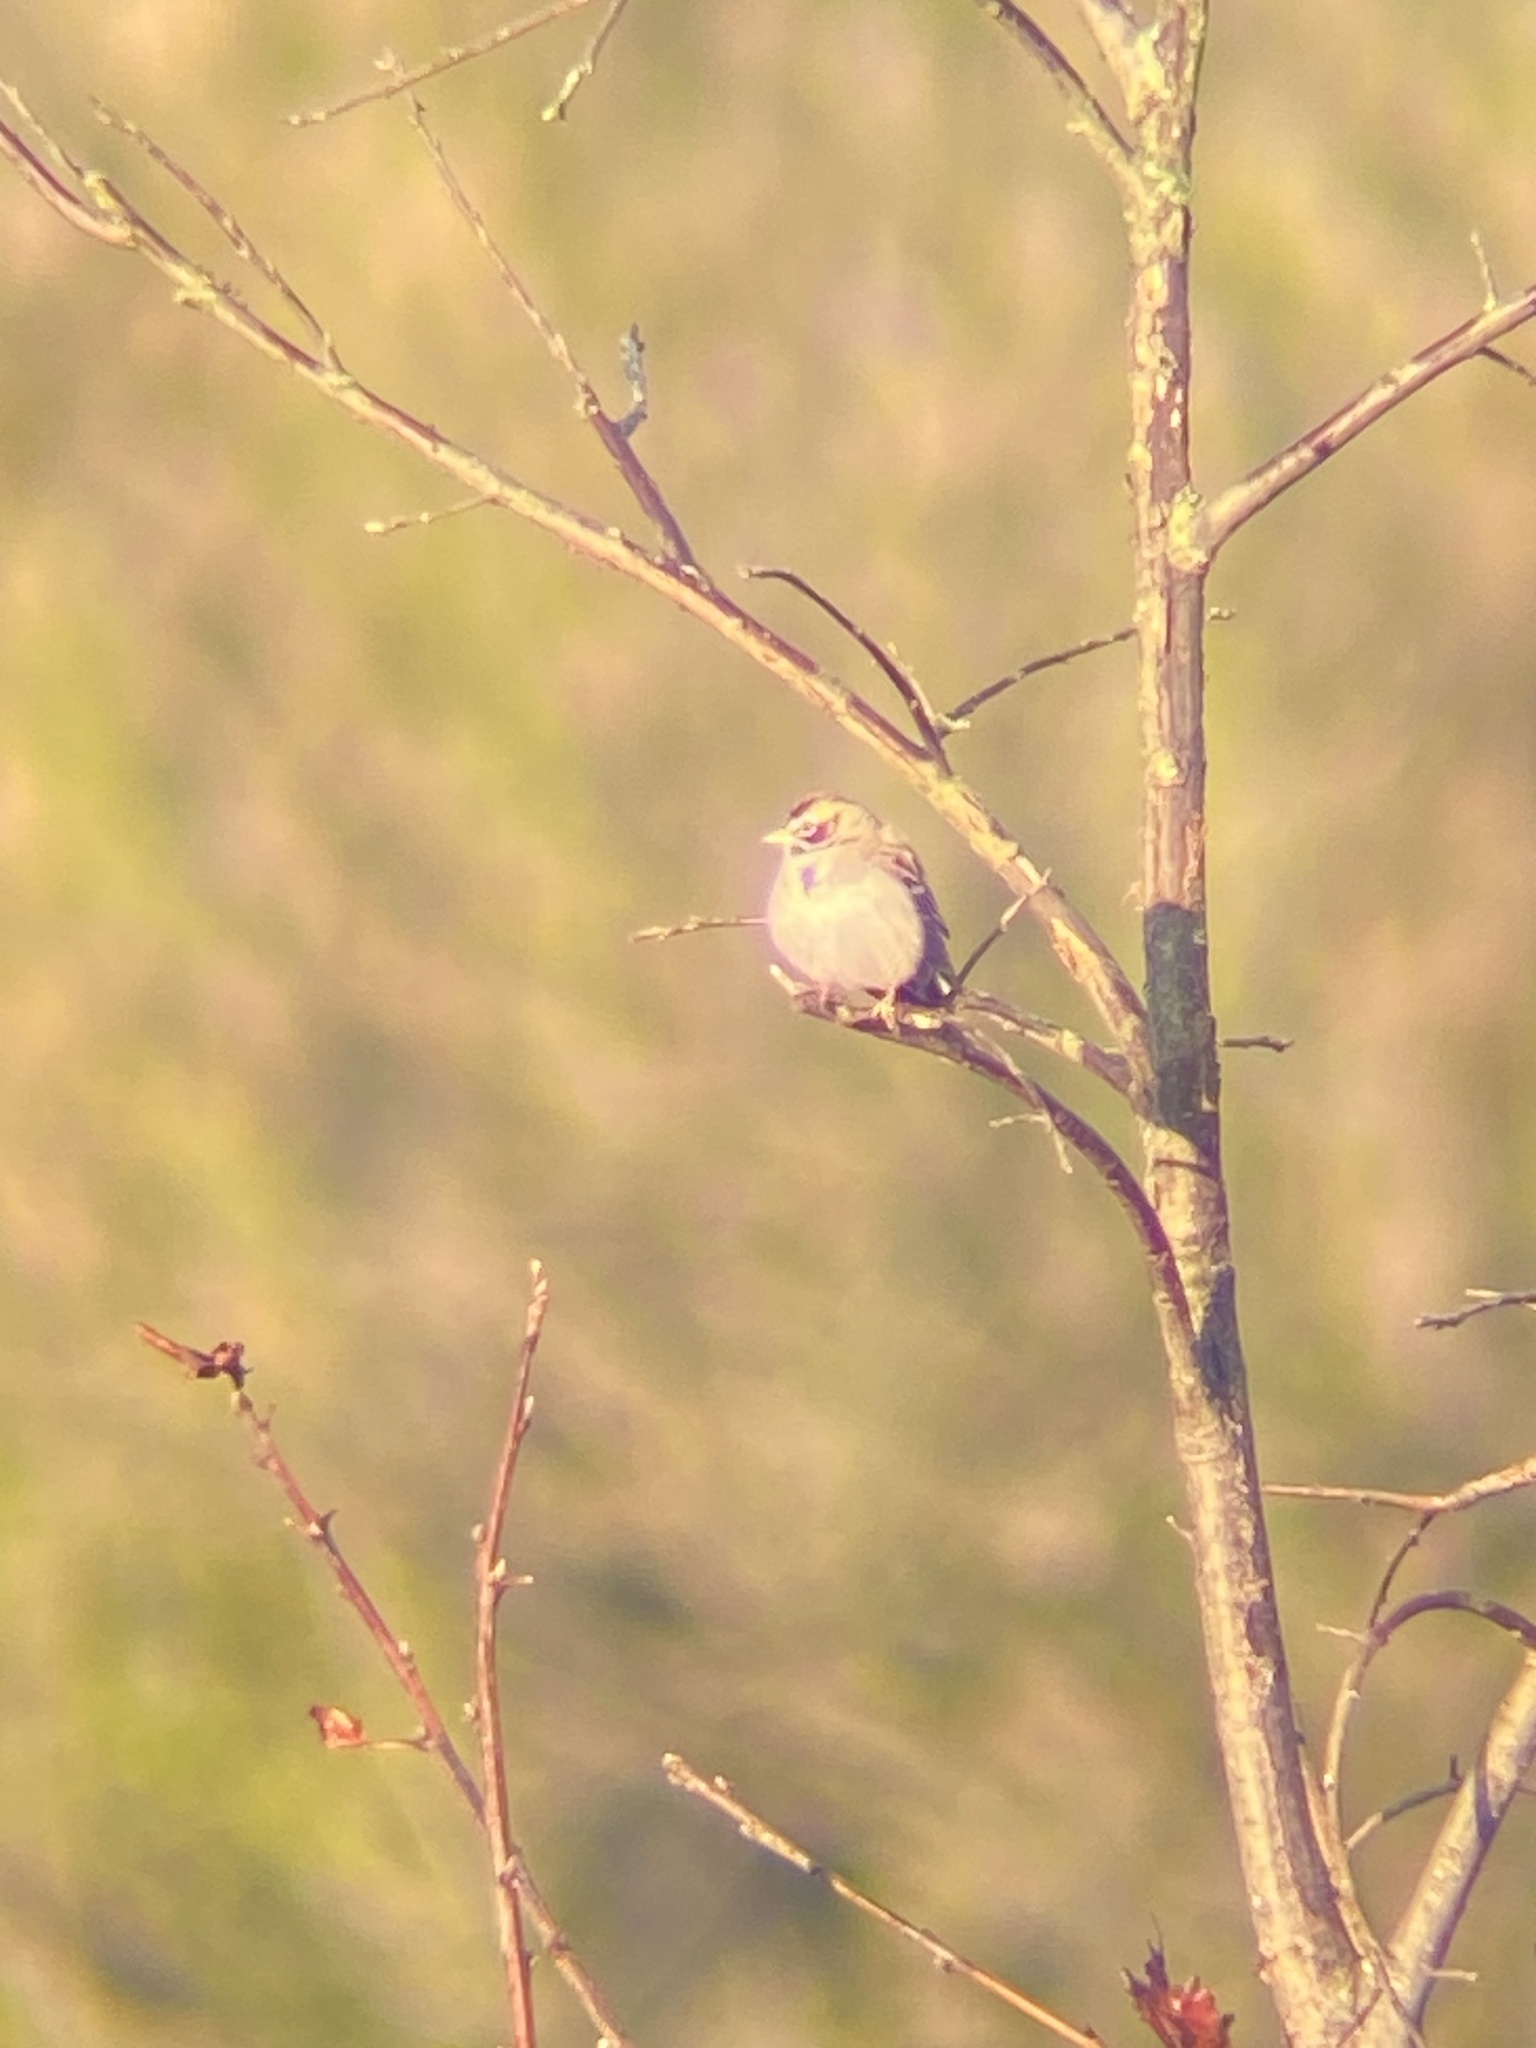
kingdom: Animalia
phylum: Chordata
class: Aves
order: Passeriformes
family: Passerellidae
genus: Chondestes
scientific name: Chondestes grammacus
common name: Lark sparrow
